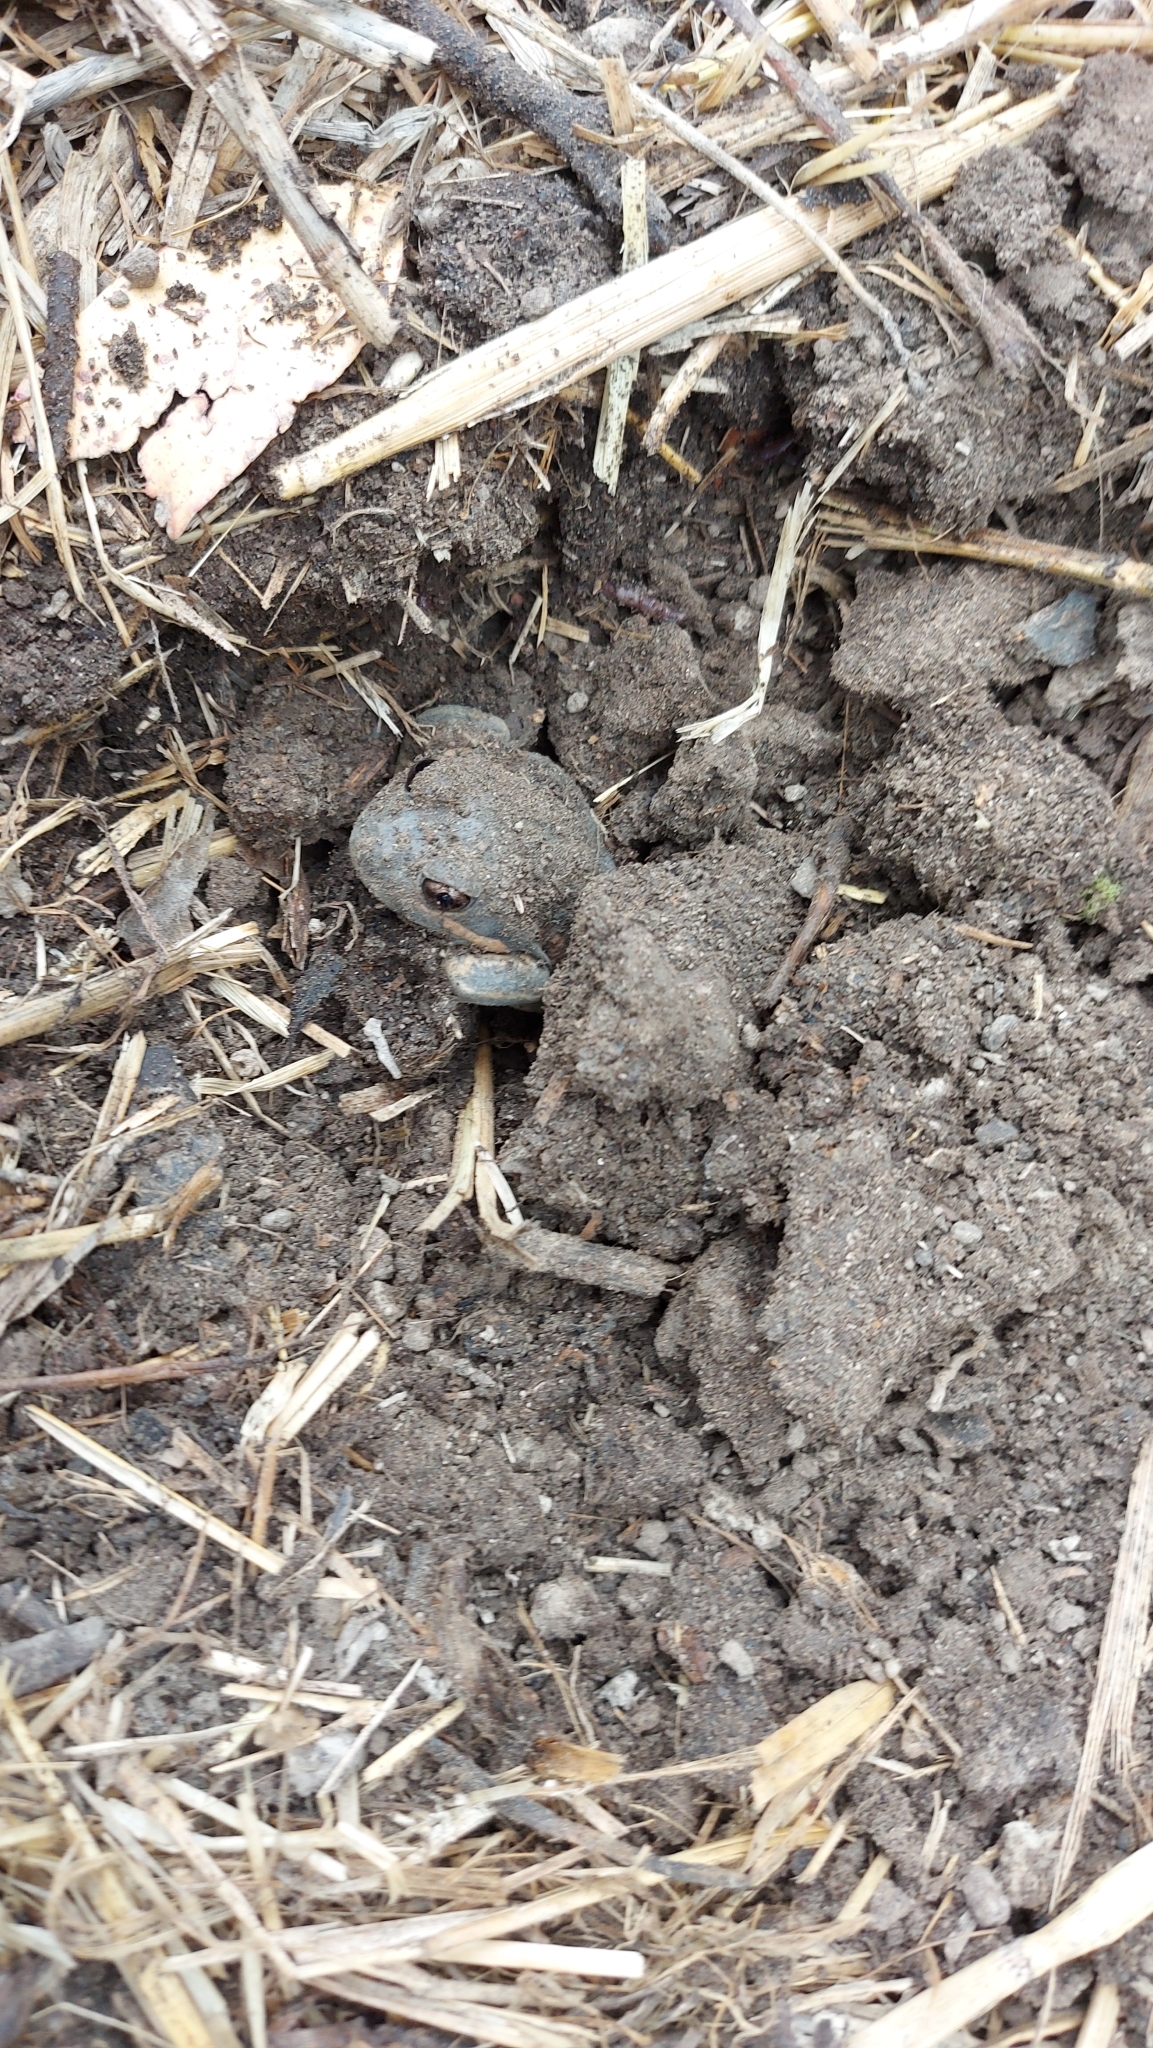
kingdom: Animalia
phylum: Chordata
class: Amphibia
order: Anura
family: Limnodynastidae
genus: Limnodynastes
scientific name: Limnodynastes dumerilii
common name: Banjo frog
